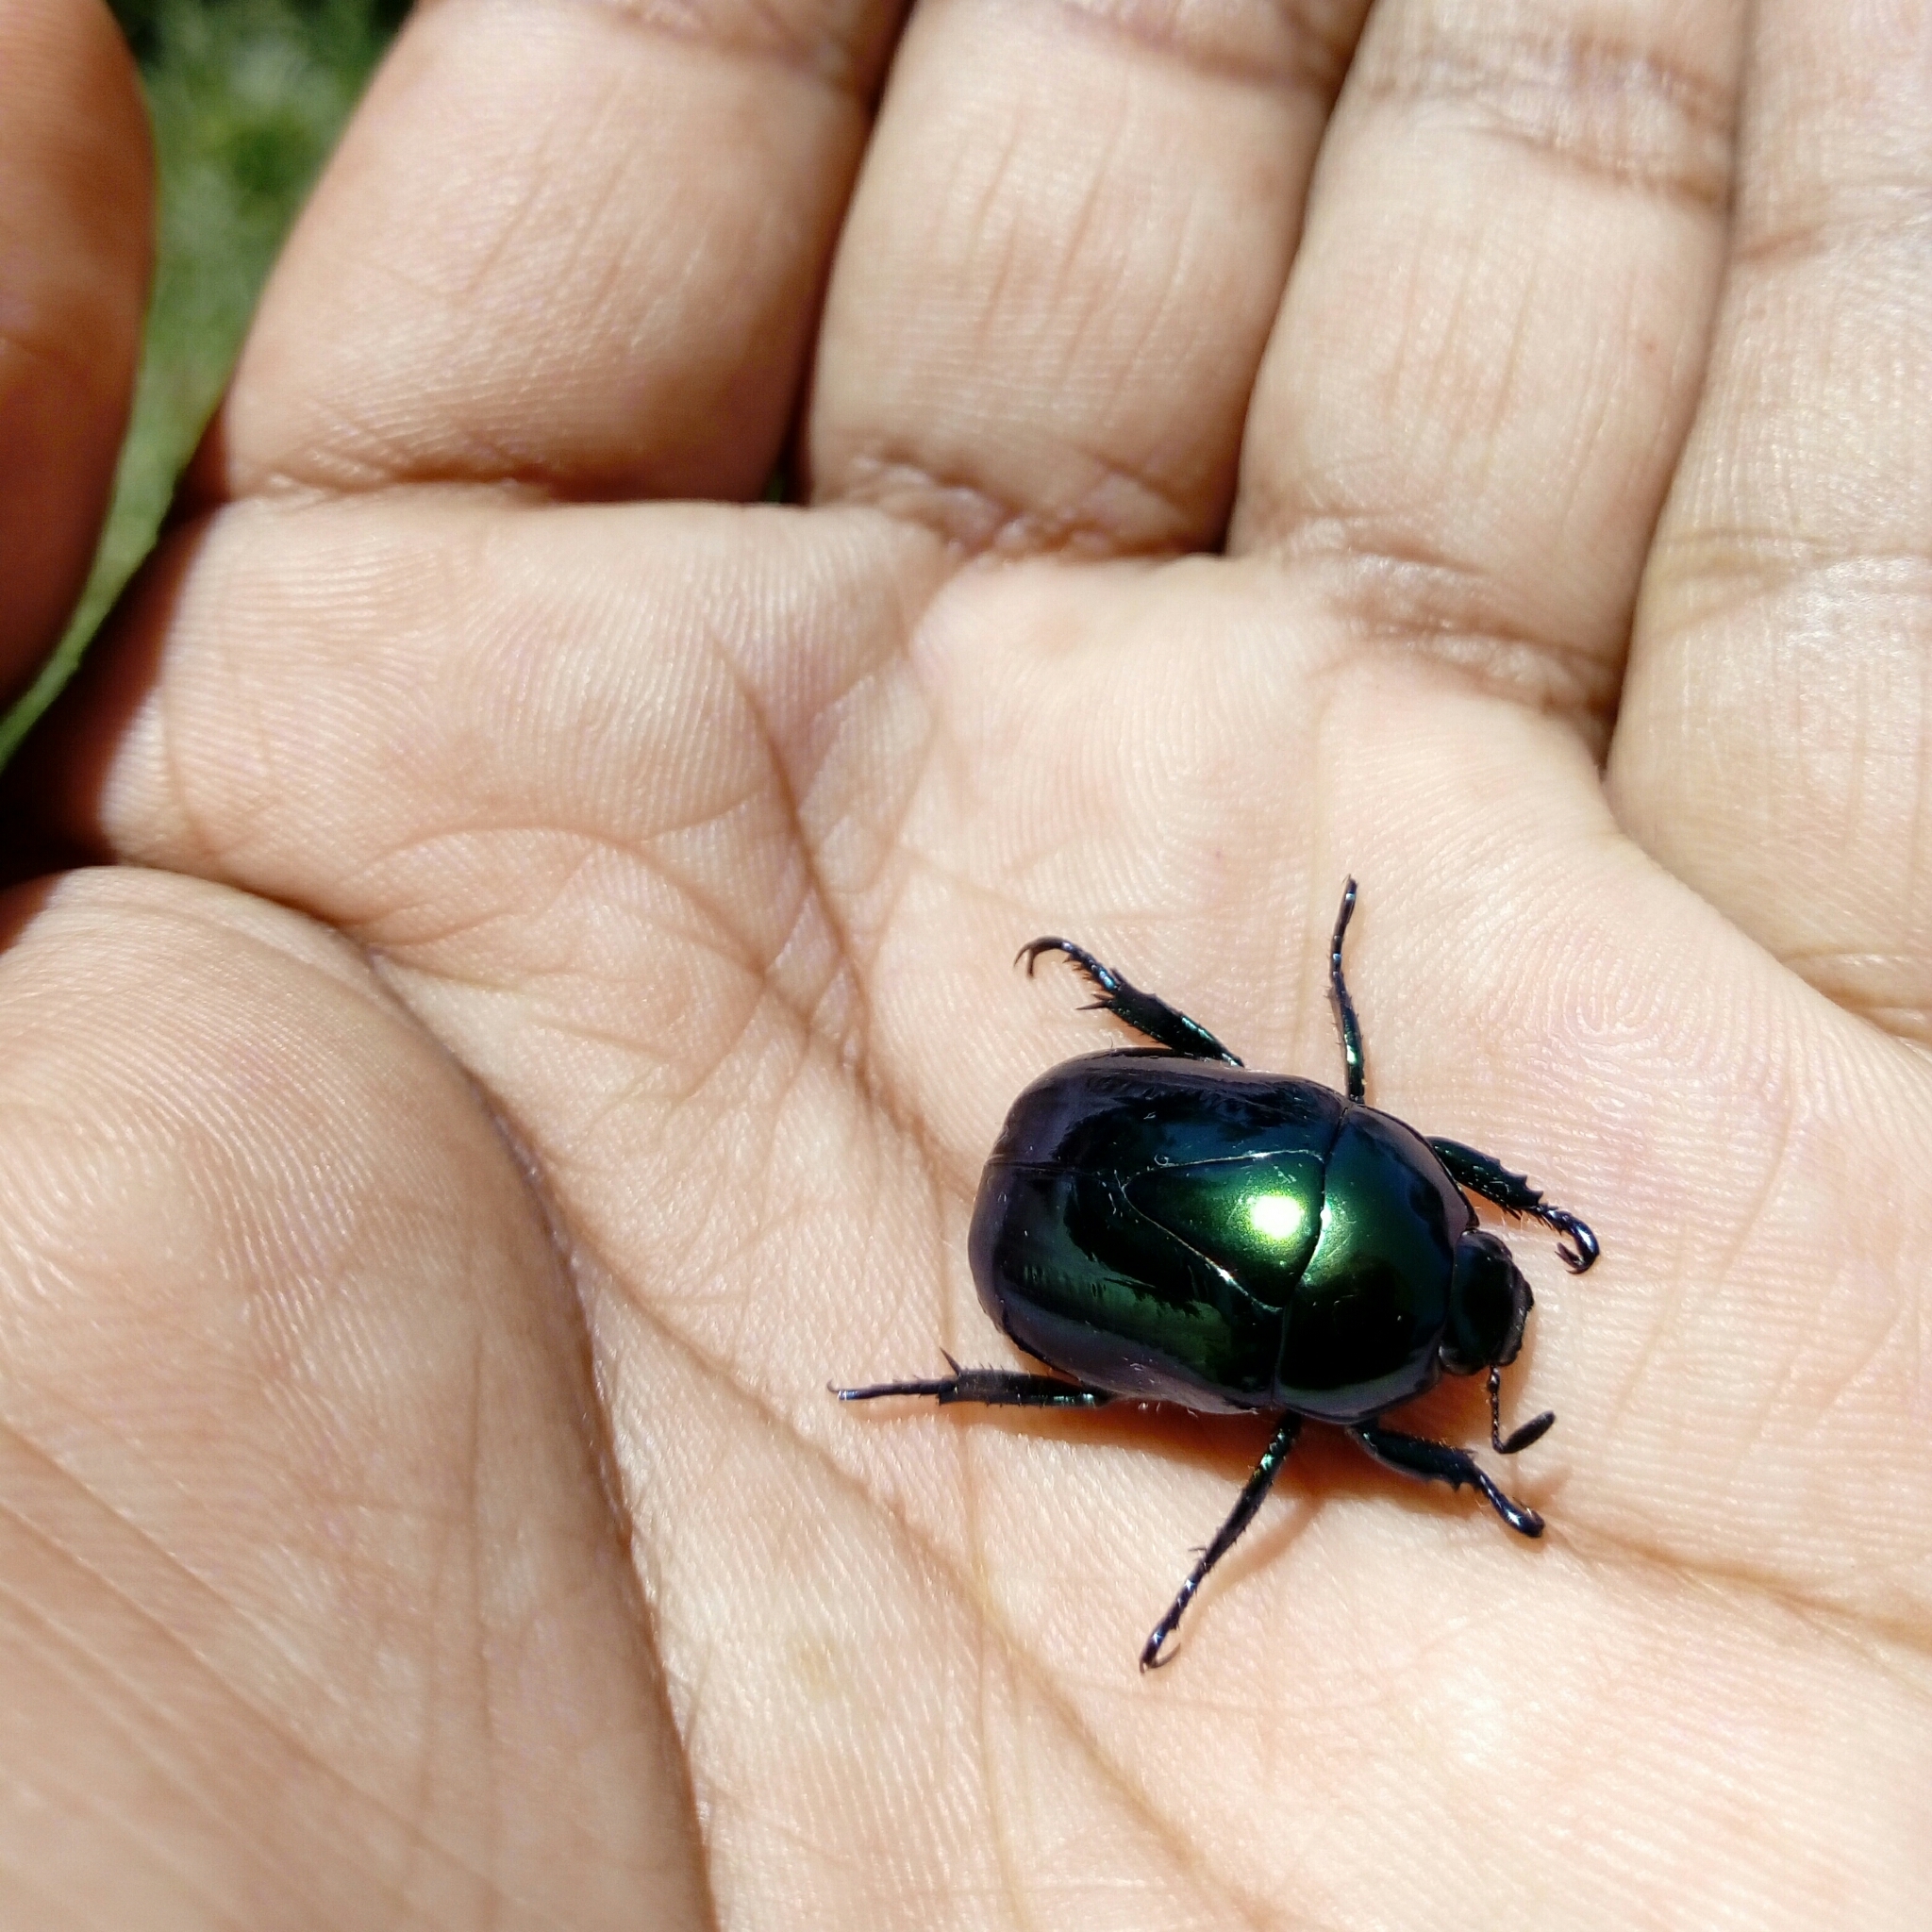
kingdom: Animalia
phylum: Arthropoda
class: Insecta
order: Coleoptera
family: Scarabaeidae
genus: Macraspis
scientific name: Macraspis
